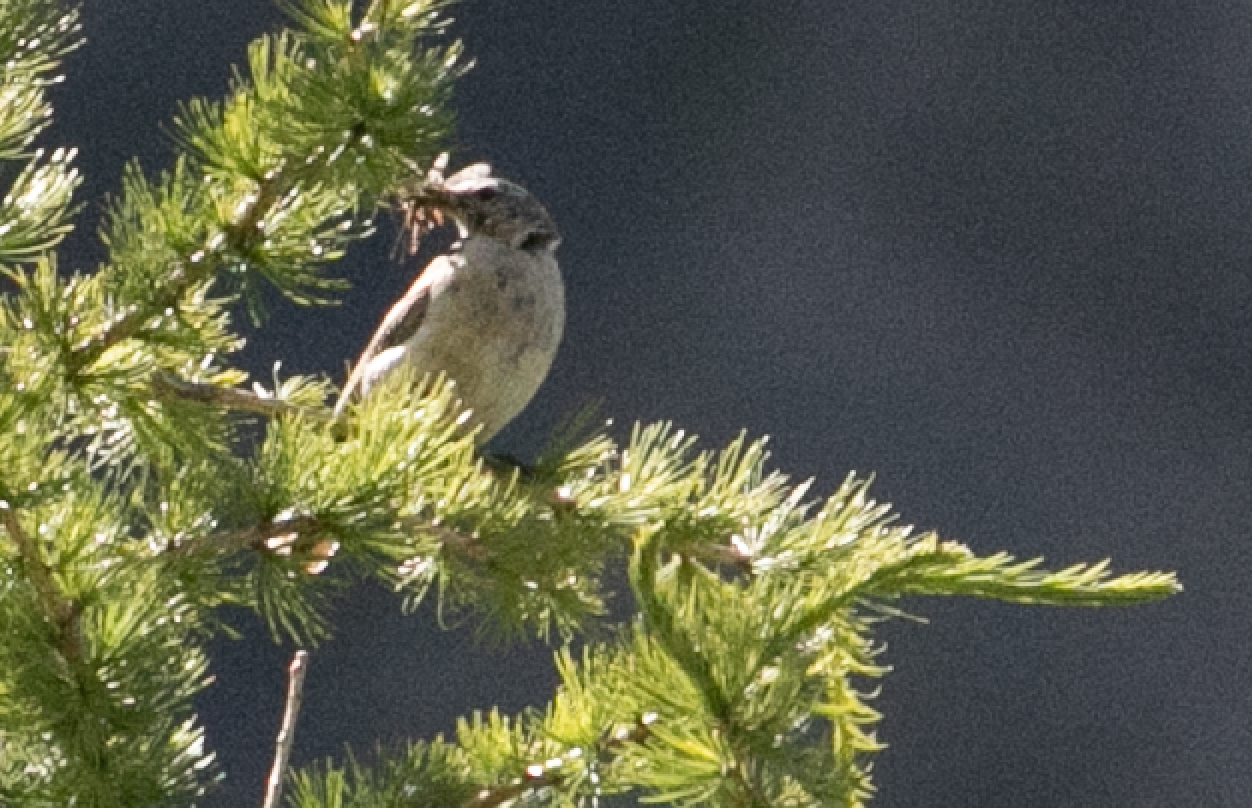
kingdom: Animalia
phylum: Chordata
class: Aves
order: Passeriformes
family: Motacillidae
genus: Anthus
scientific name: Anthus spinoletta
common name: Water pipit
